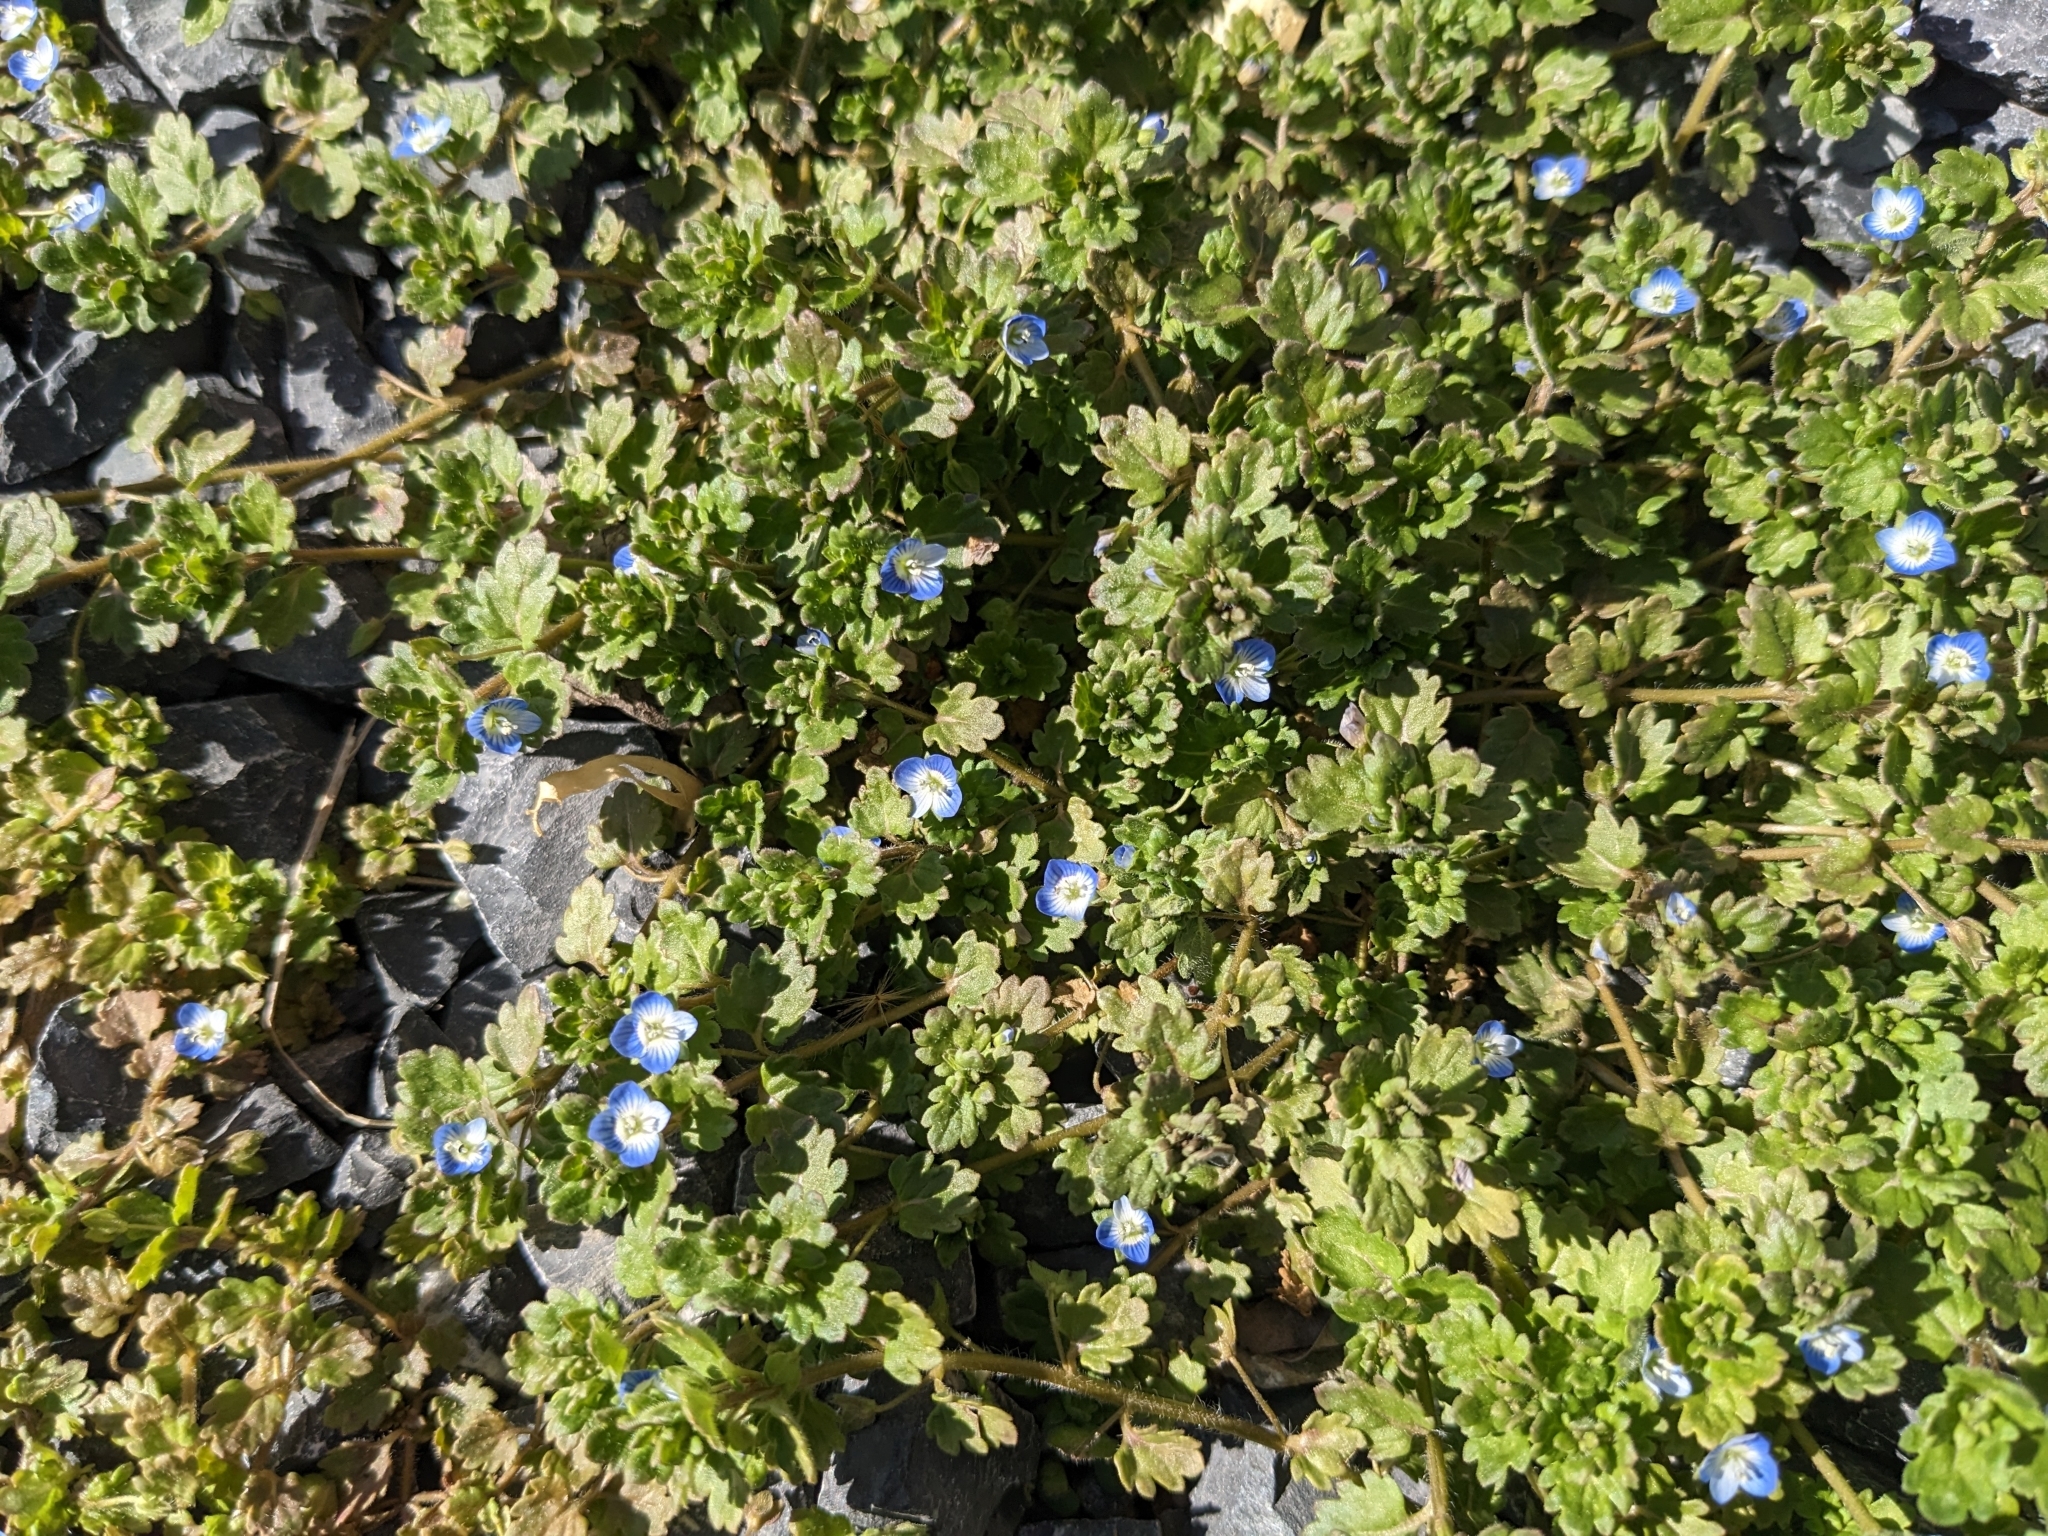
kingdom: Plantae
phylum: Tracheophyta
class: Magnoliopsida
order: Lamiales
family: Plantaginaceae
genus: Veronica
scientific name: Veronica polita
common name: Grey field-speedwell
